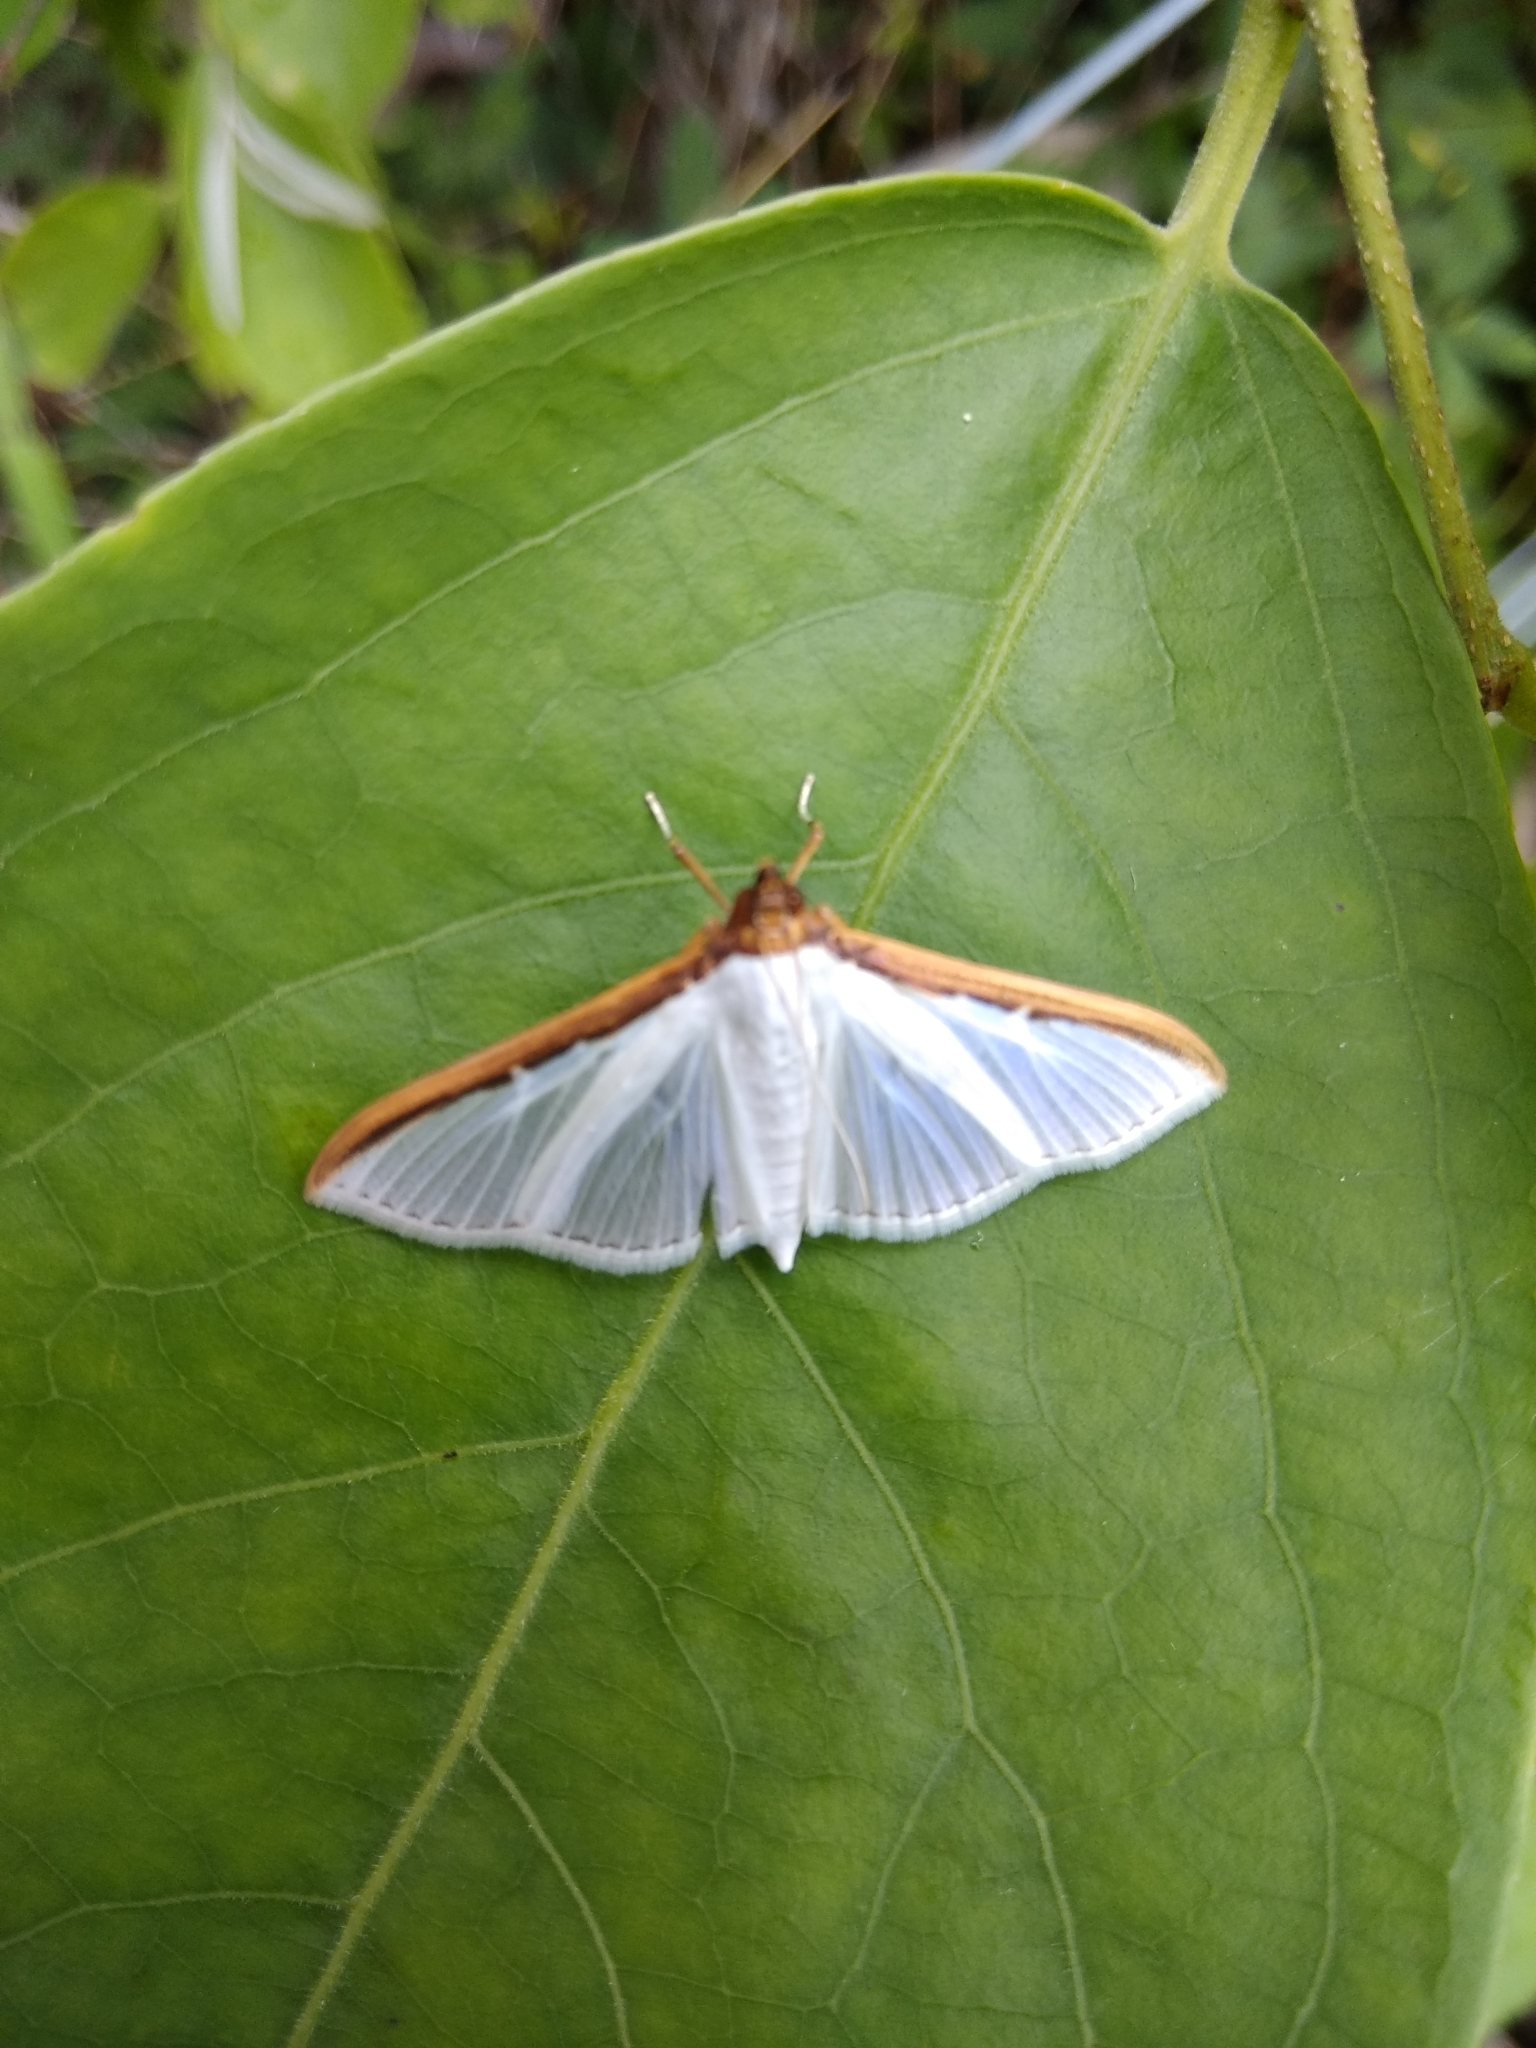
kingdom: Animalia
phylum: Arthropoda
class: Insecta
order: Lepidoptera
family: Crambidae
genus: Cydalima
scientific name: Cydalima laticostalis
